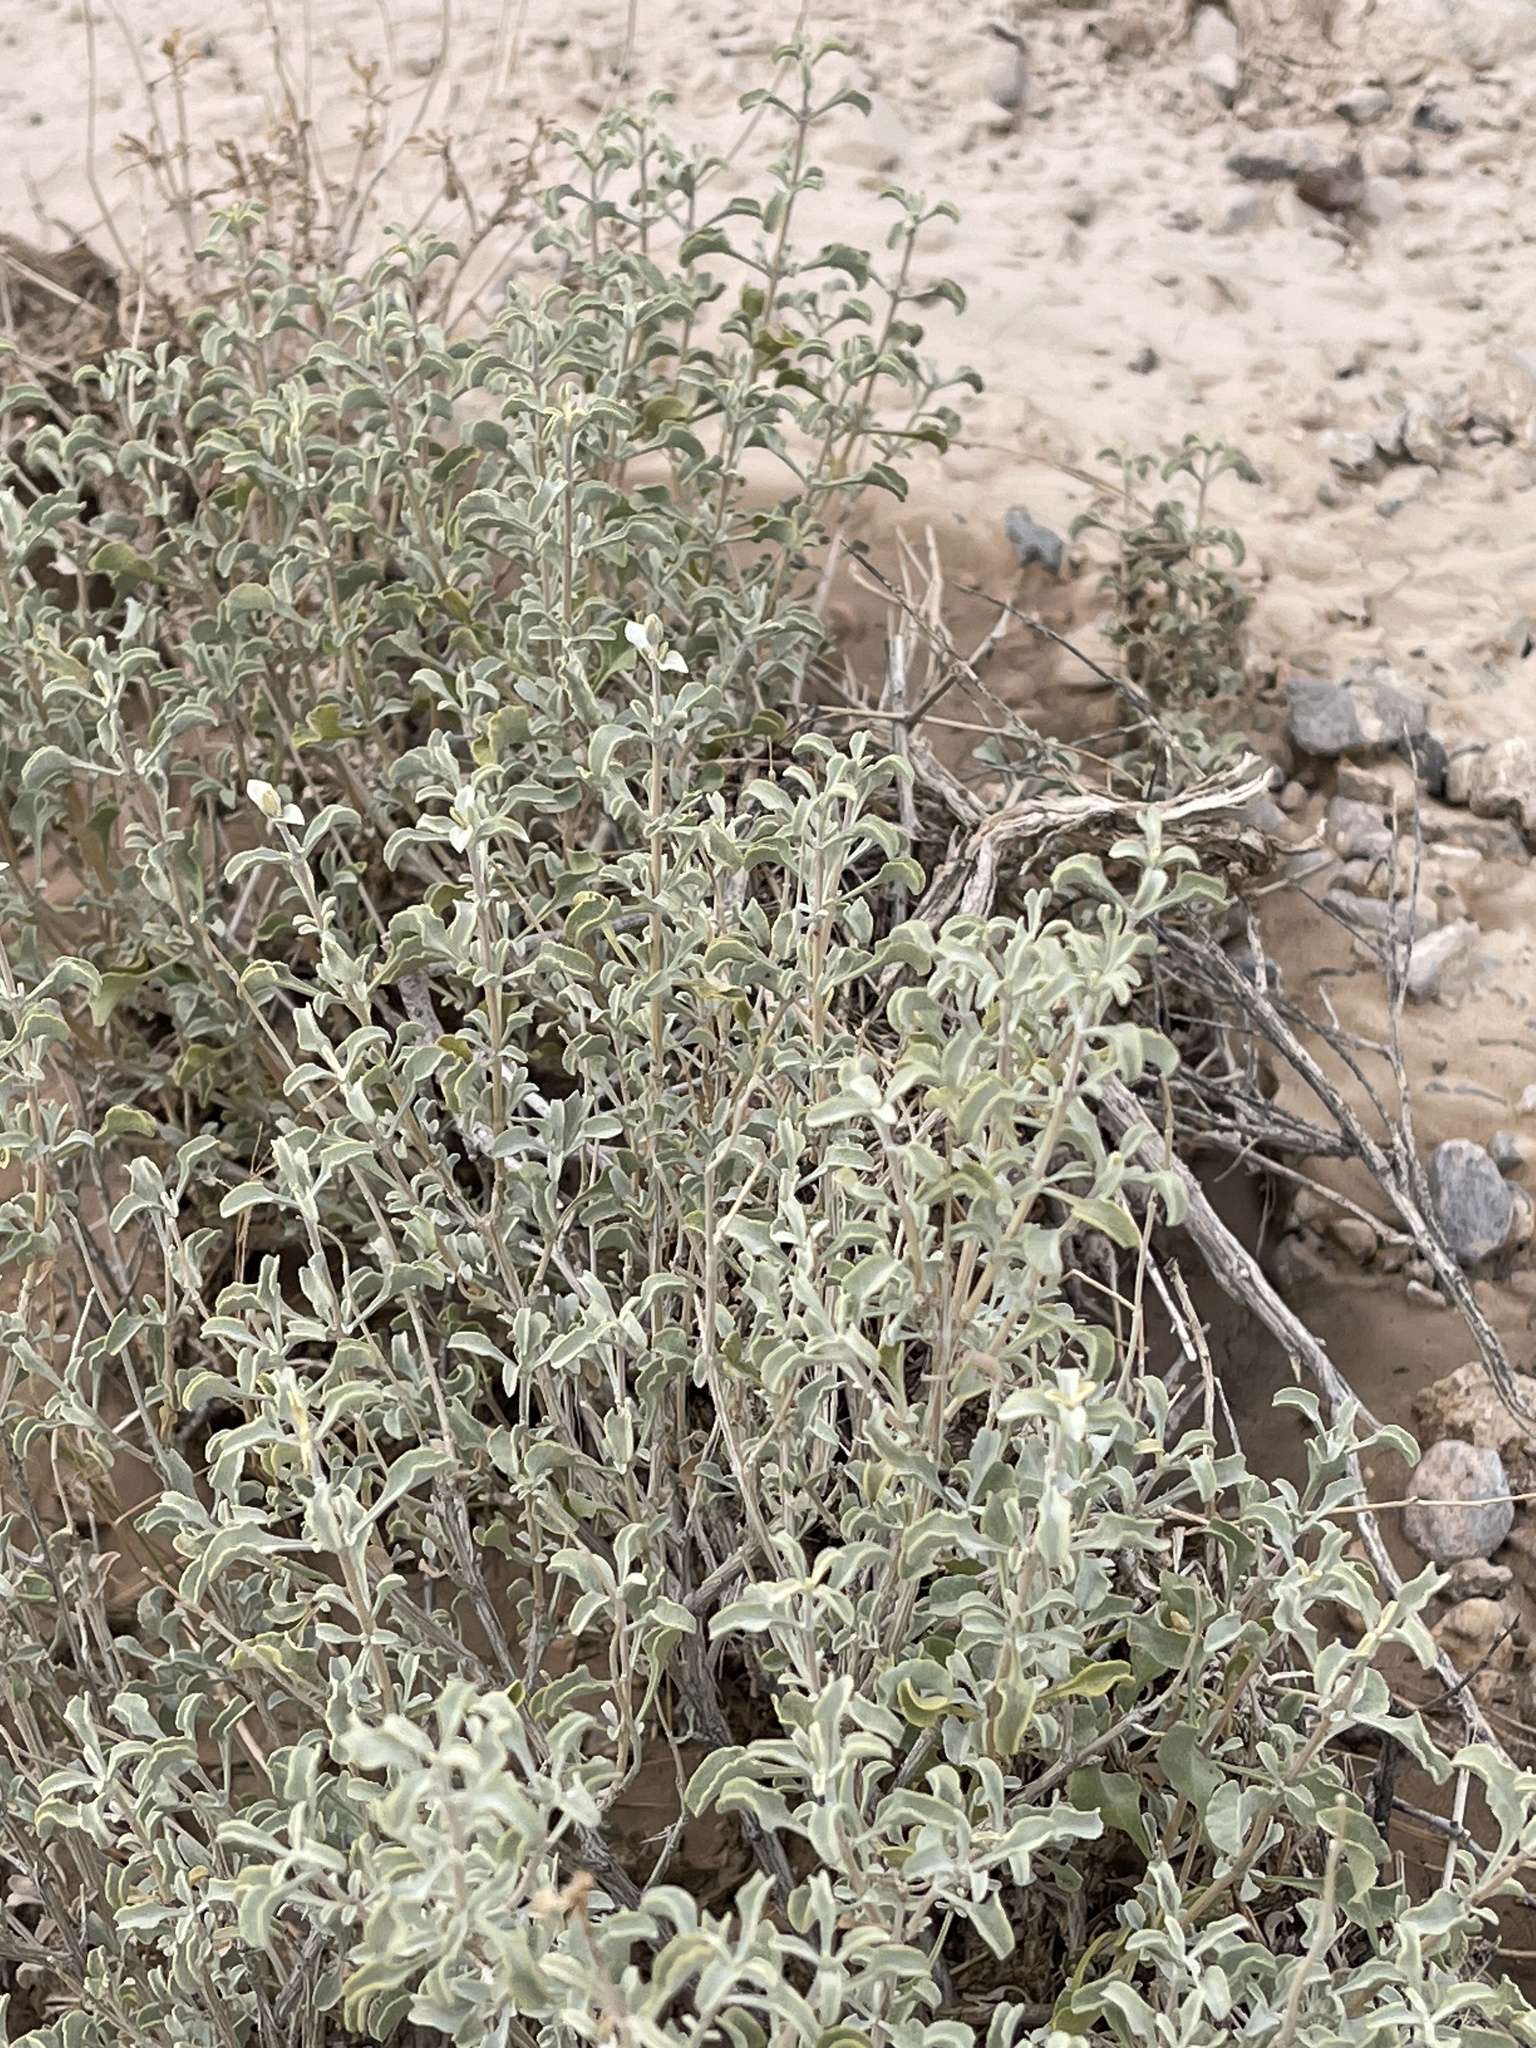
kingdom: Plantae
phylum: Tracheophyta
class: Magnoliopsida
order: Lamiales
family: Lamiaceae
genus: Salvia
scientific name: Salvia dorrii
